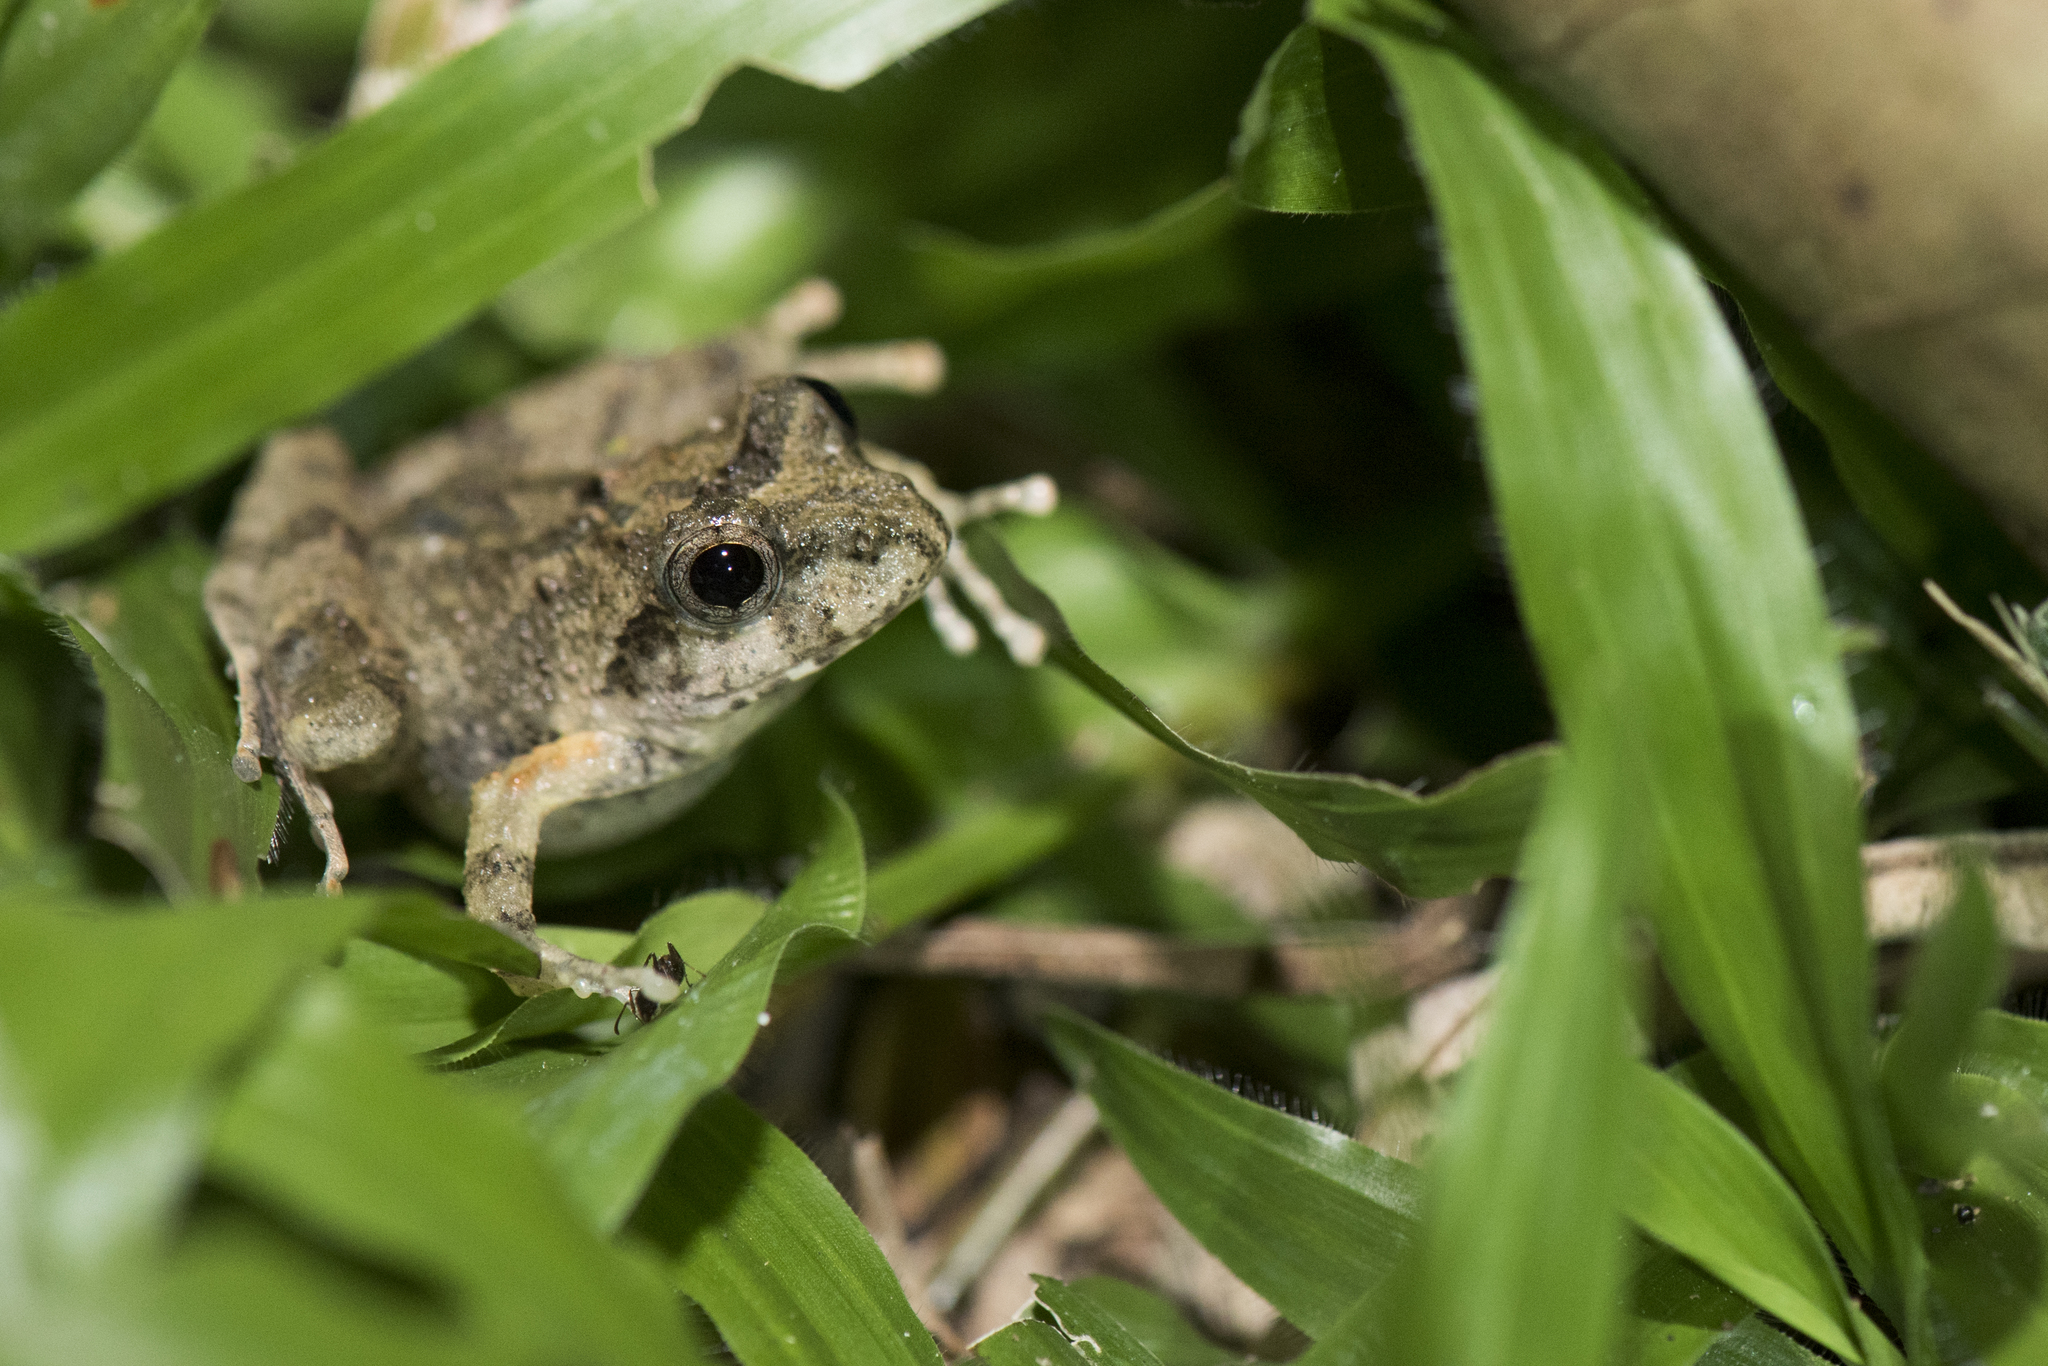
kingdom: Animalia
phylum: Chordata
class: Amphibia
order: Anura
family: Rhacophoridae
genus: Buergeria
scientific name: Buergeria choui
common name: Yaeyama kajika frog
